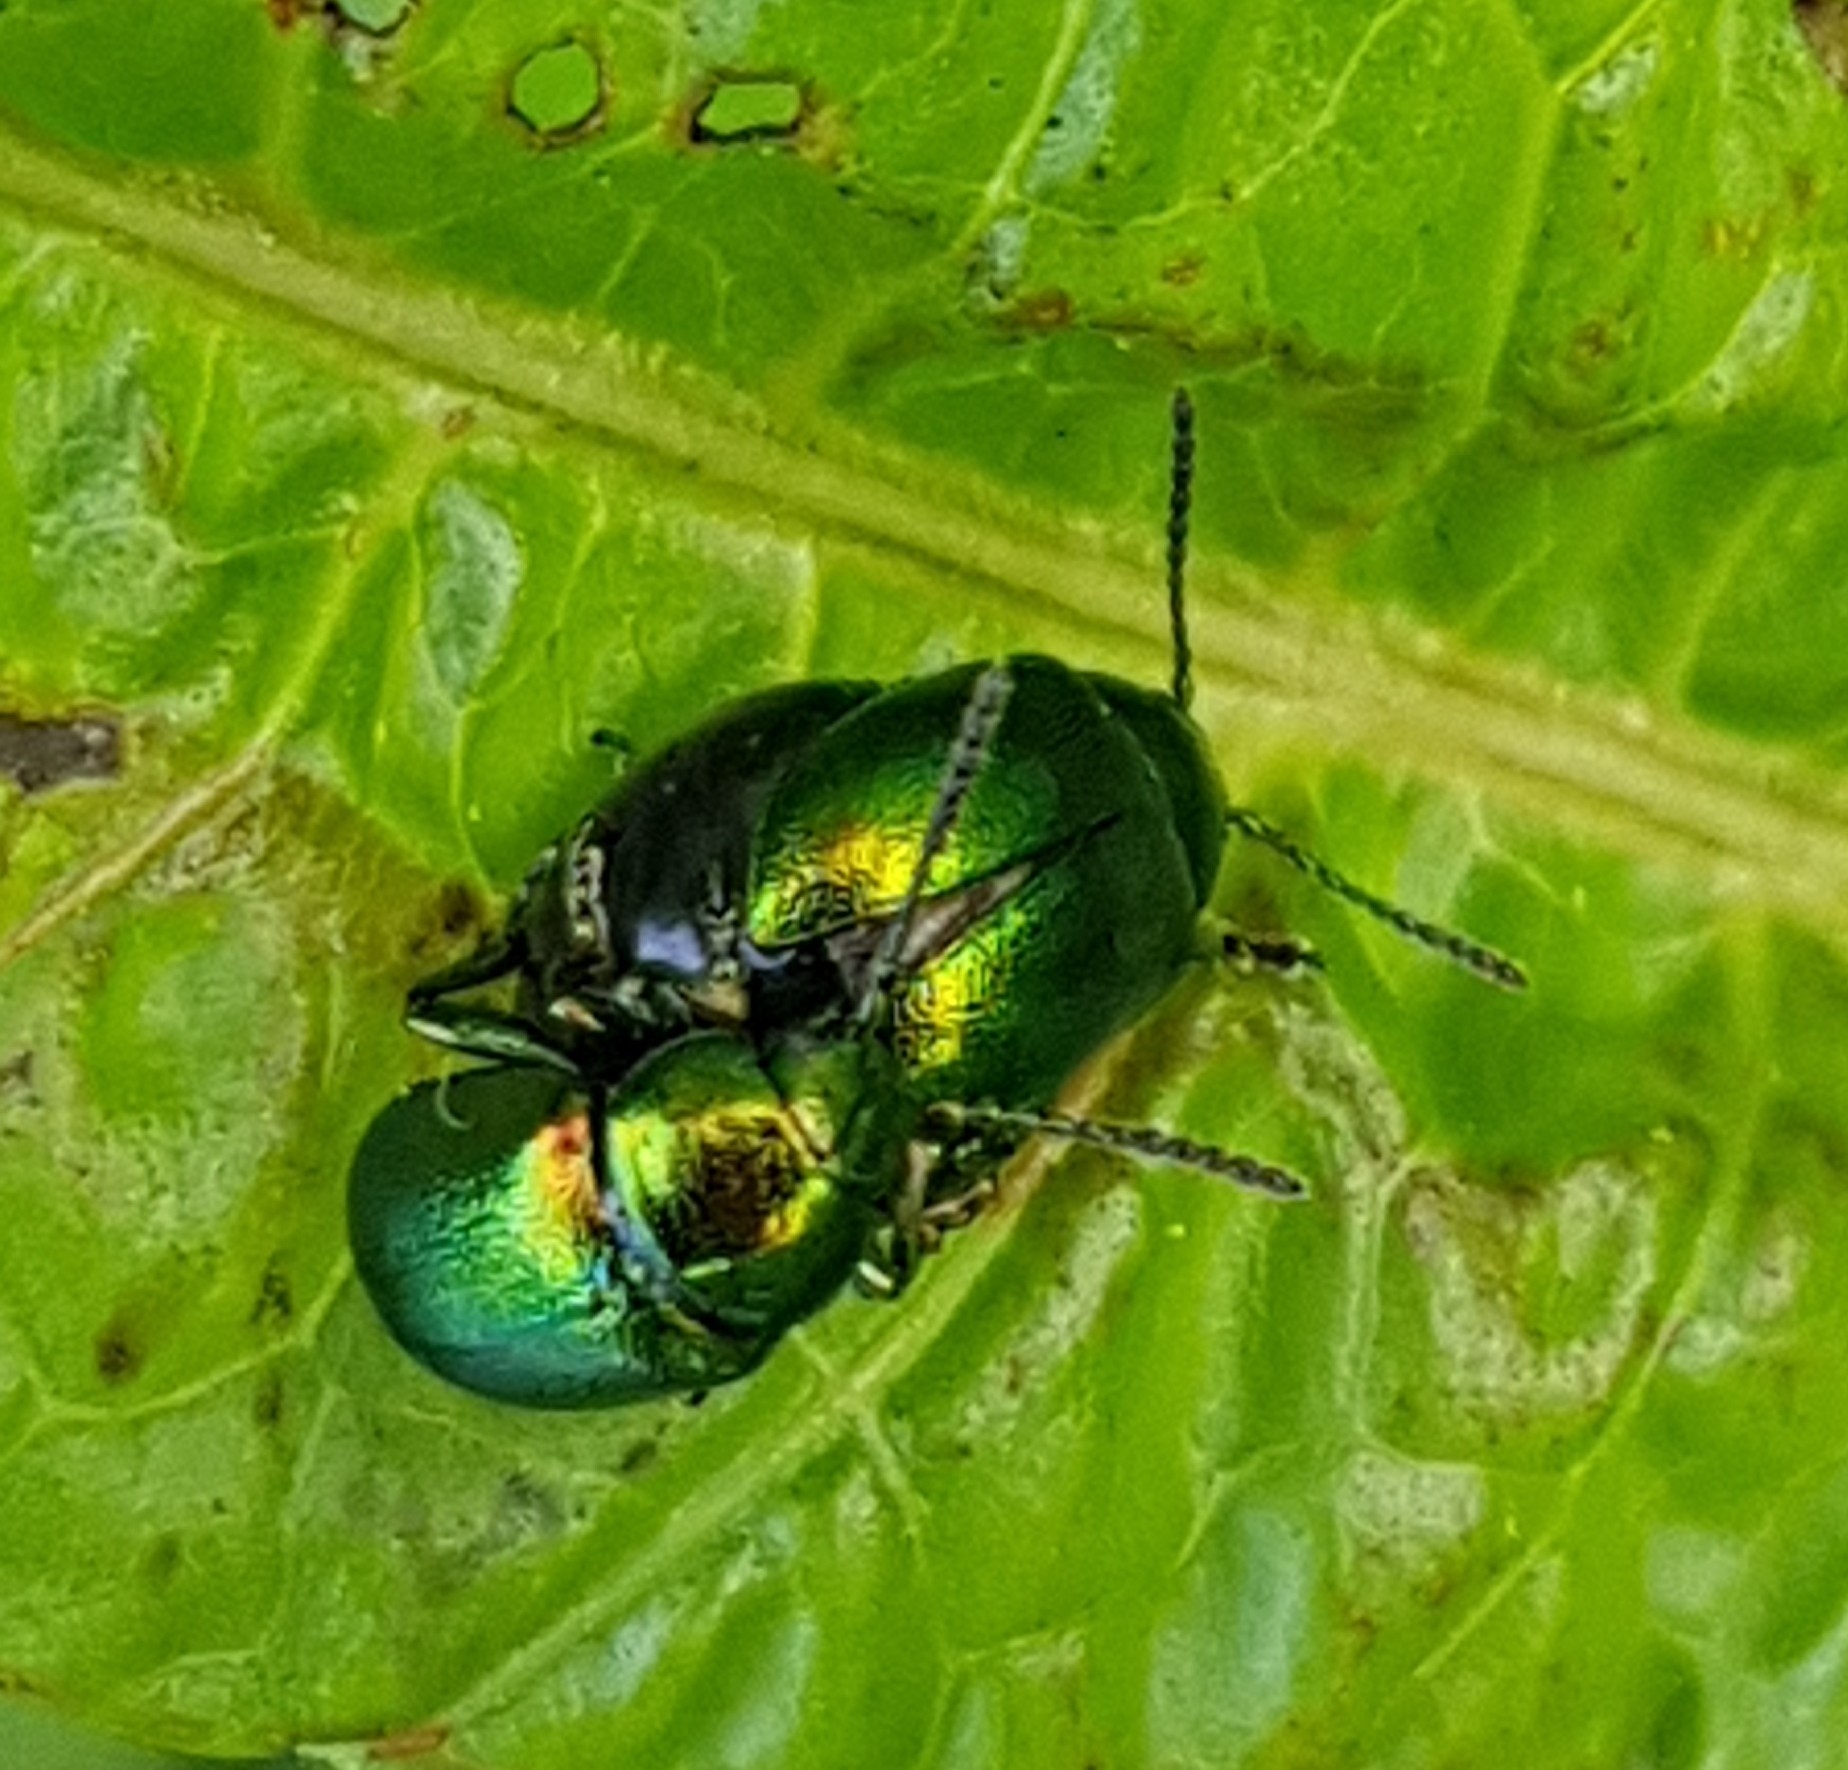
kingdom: Animalia
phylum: Arthropoda
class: Insecta
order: Coleoptera
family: Chrysomelidae
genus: Gastrophysa
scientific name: Gastrophysa viridula
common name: Green dock beetle
